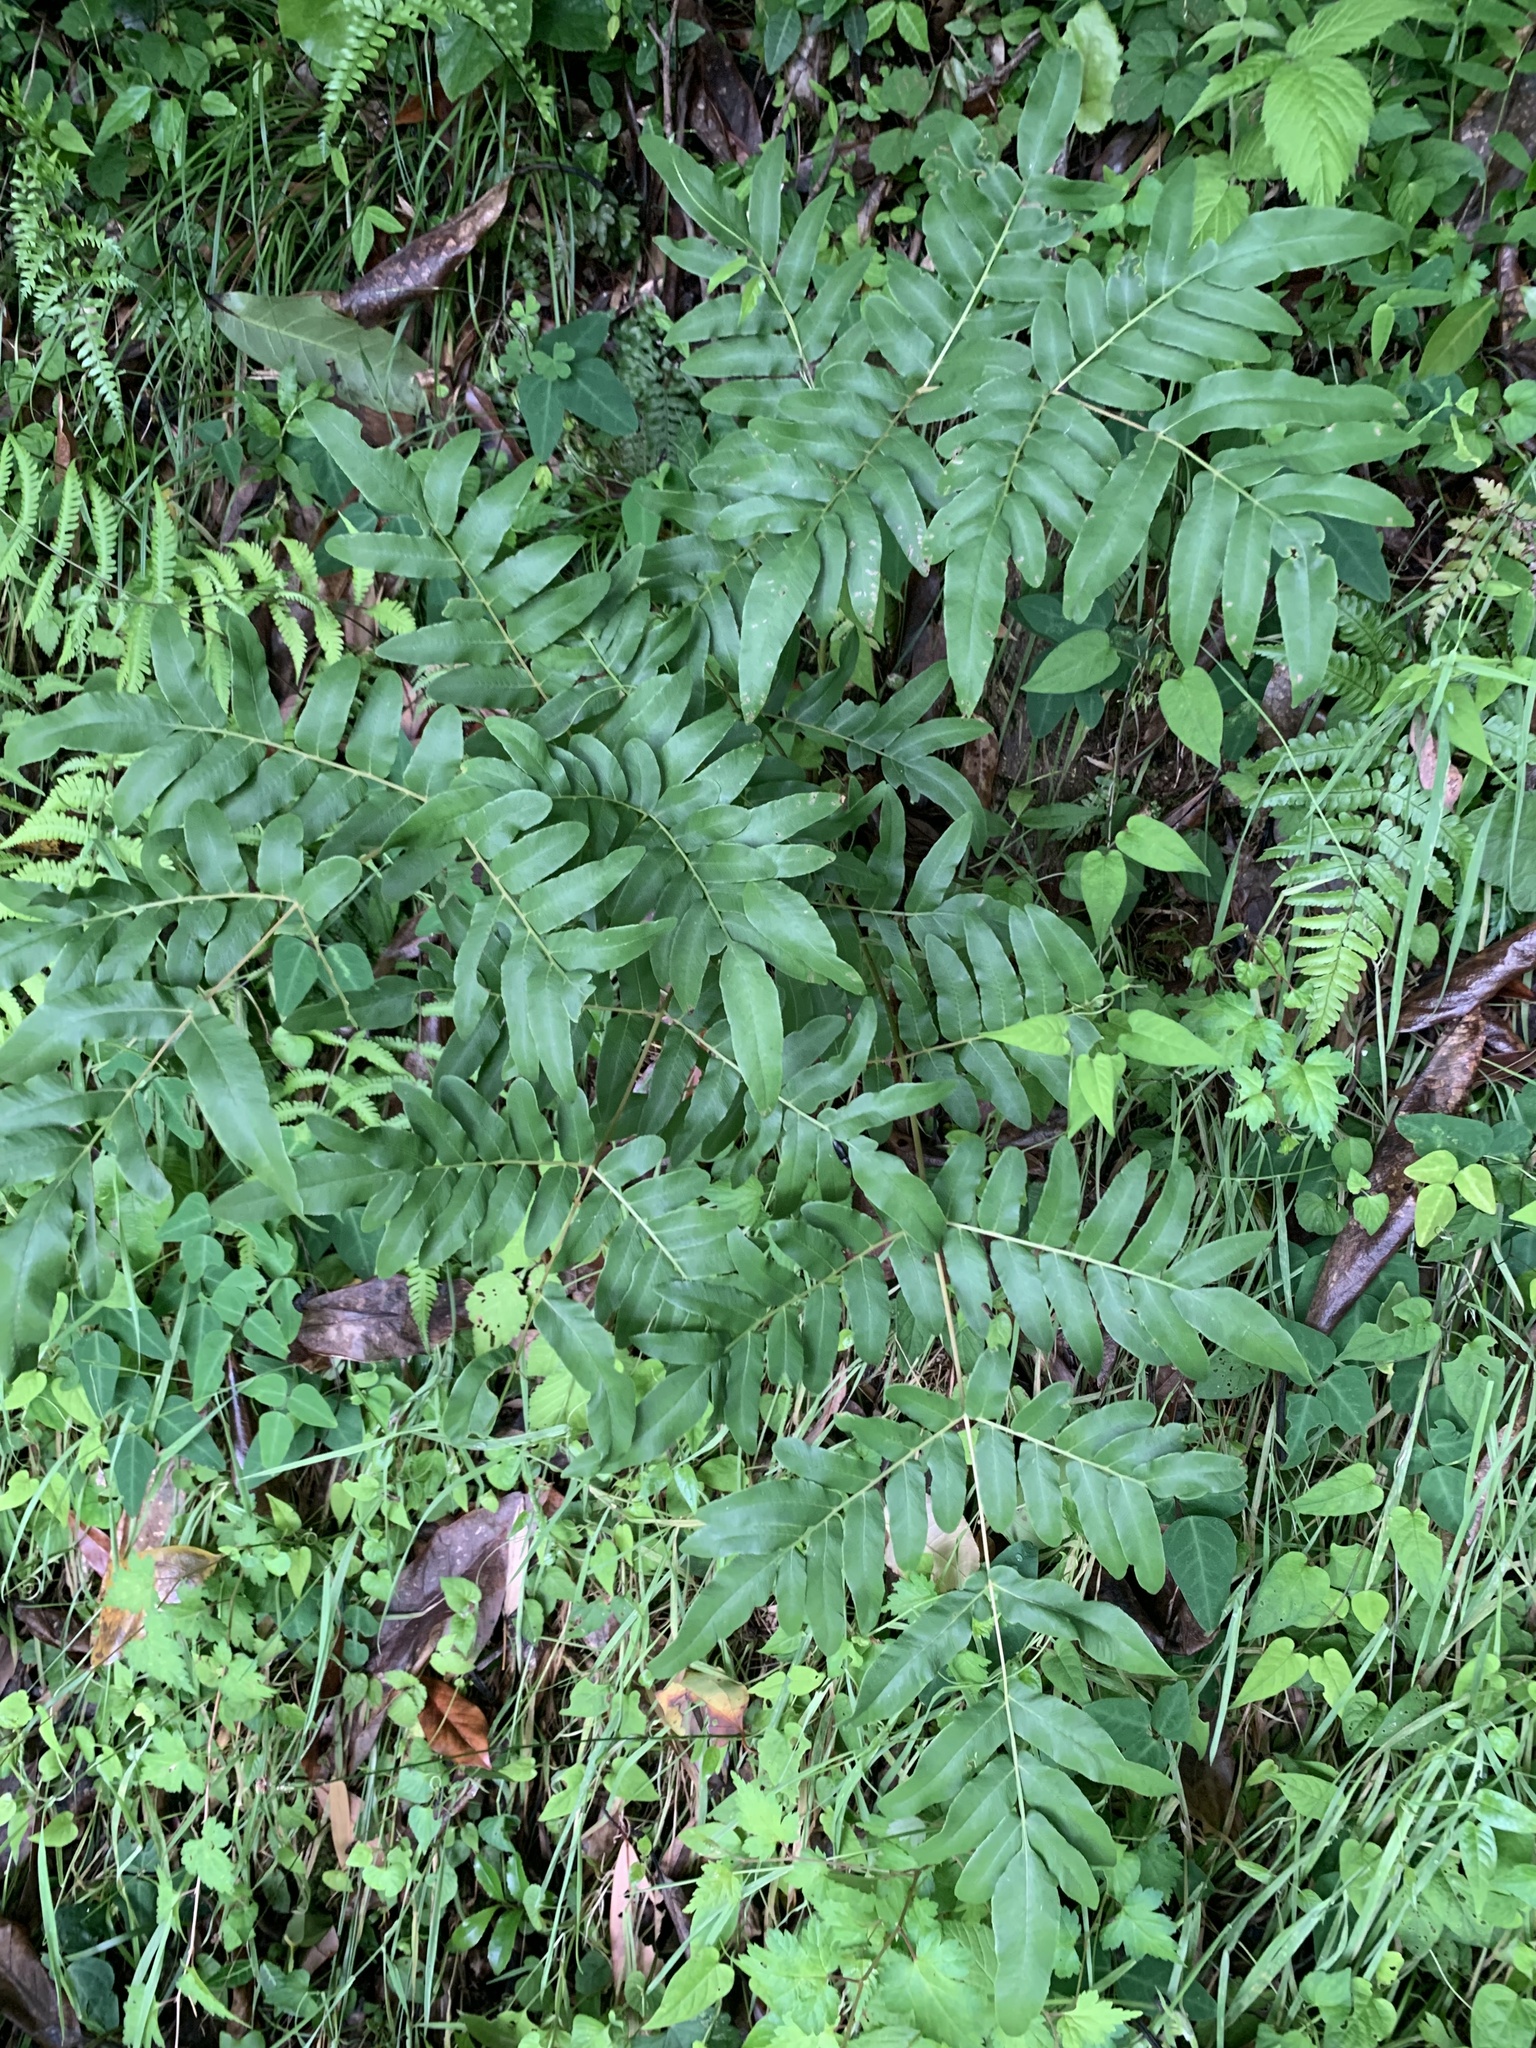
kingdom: Plantae
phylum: Tracheophyta
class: Polypodiopsida
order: Osmundales
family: Osmundaceae
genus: Osmunda
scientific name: Osmunda japonica
